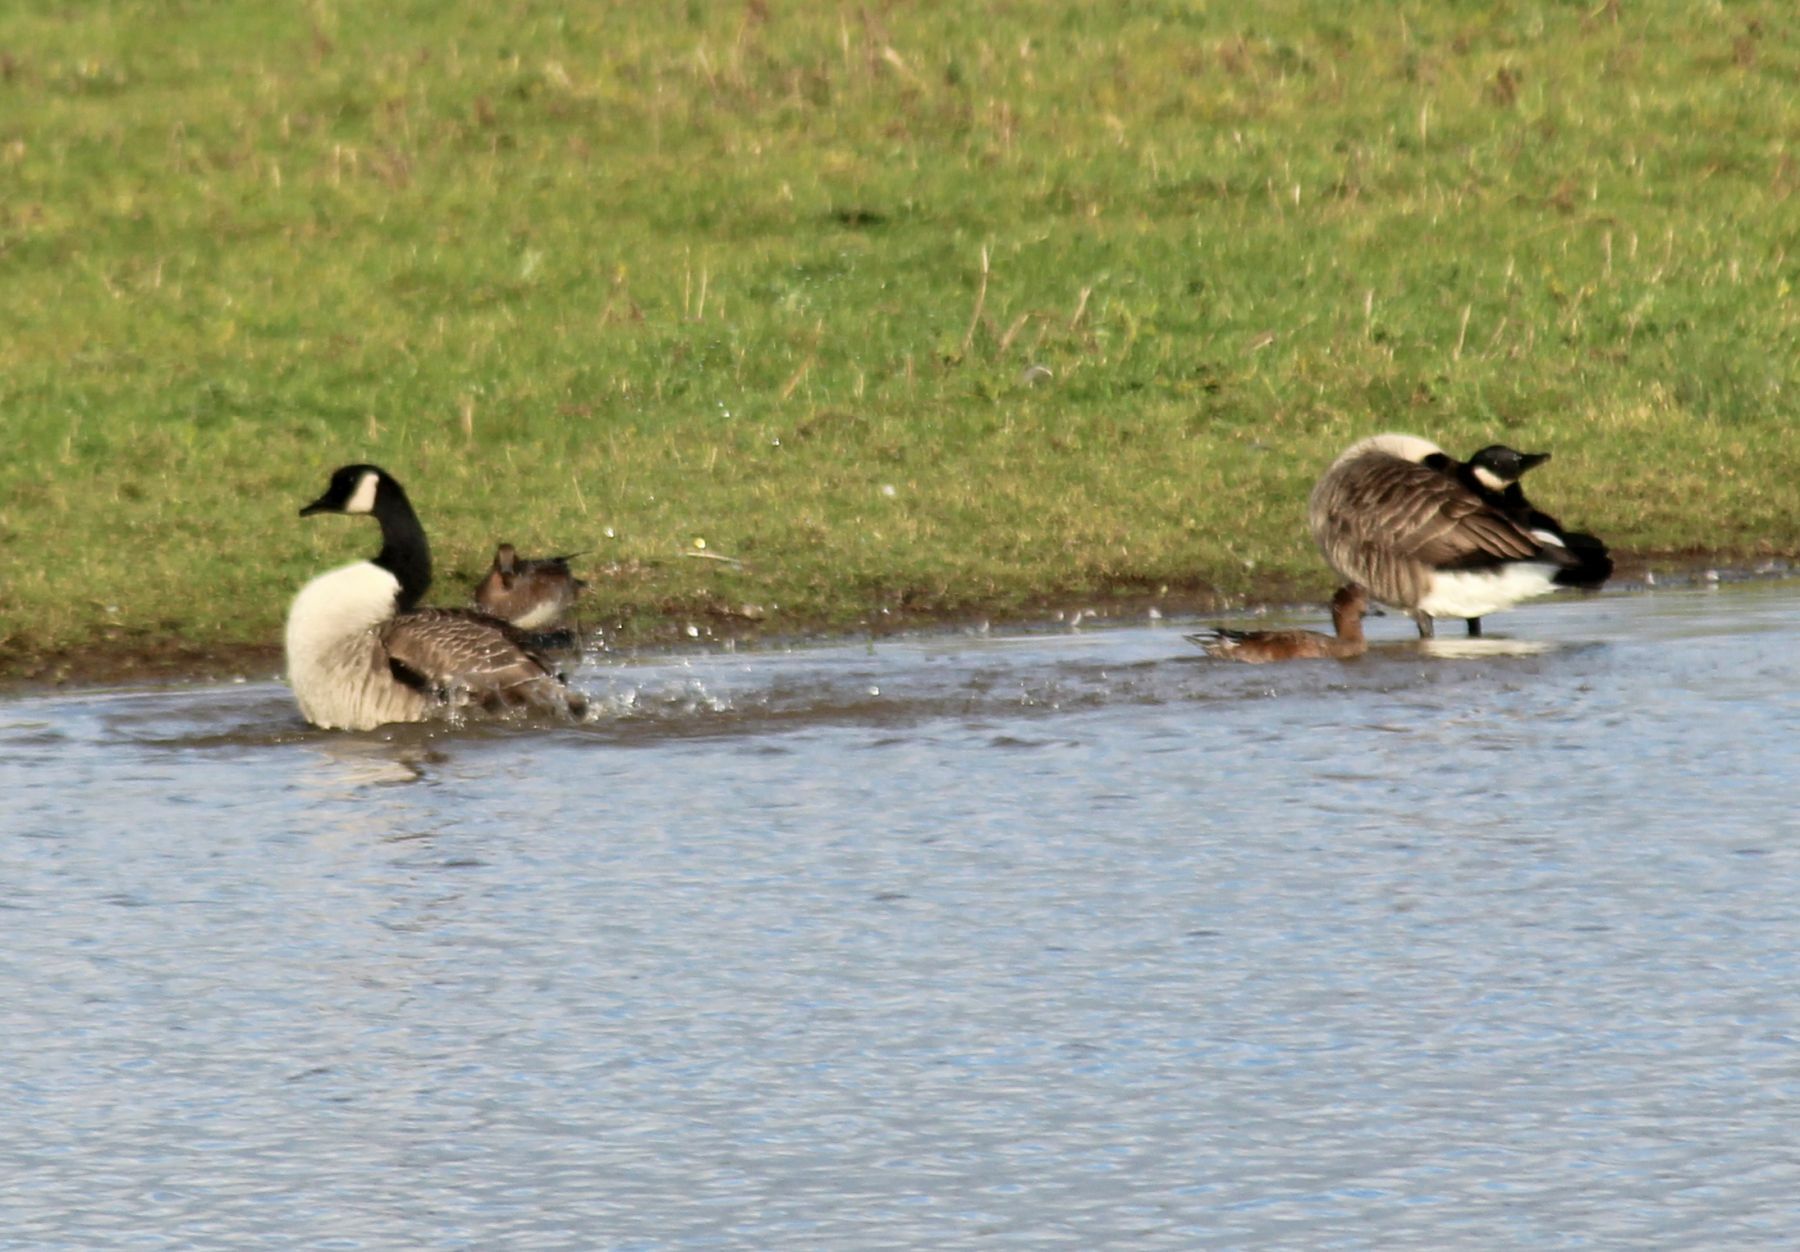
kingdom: Animalia
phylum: Chordata
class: Aves
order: Anseriformes
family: Anatidae
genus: Branta
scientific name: Branta canadensis
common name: Canada goose
